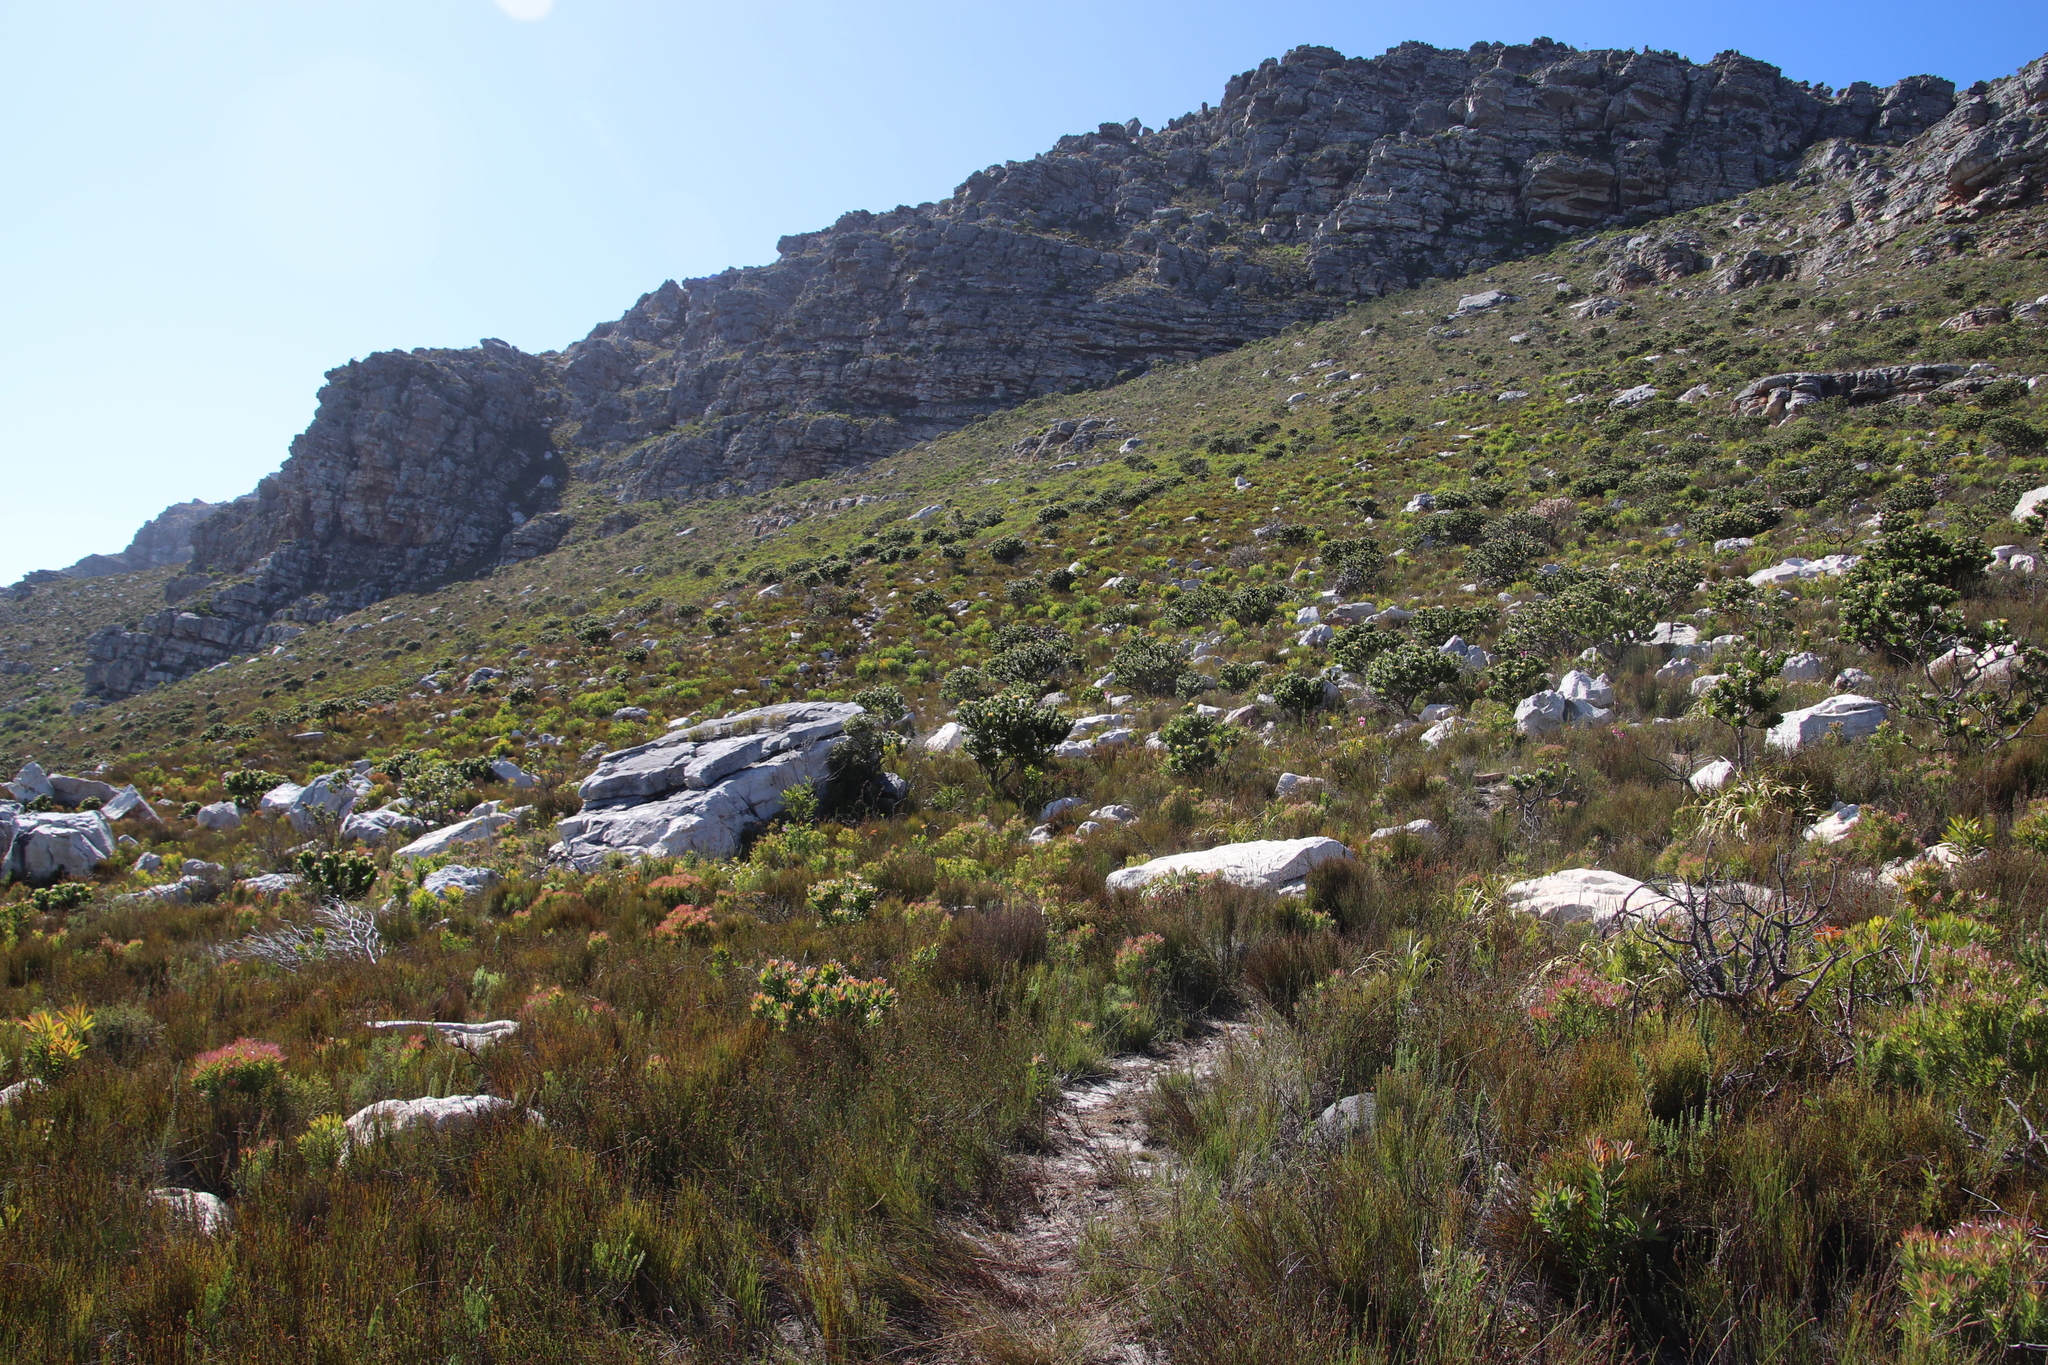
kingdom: Plantae
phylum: Tracheophyta
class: Magnoliopsida
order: Proteales
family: Proteaceae
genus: Leucospermum
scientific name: Leucospermum conocarpodendron
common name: Tree pincushion
